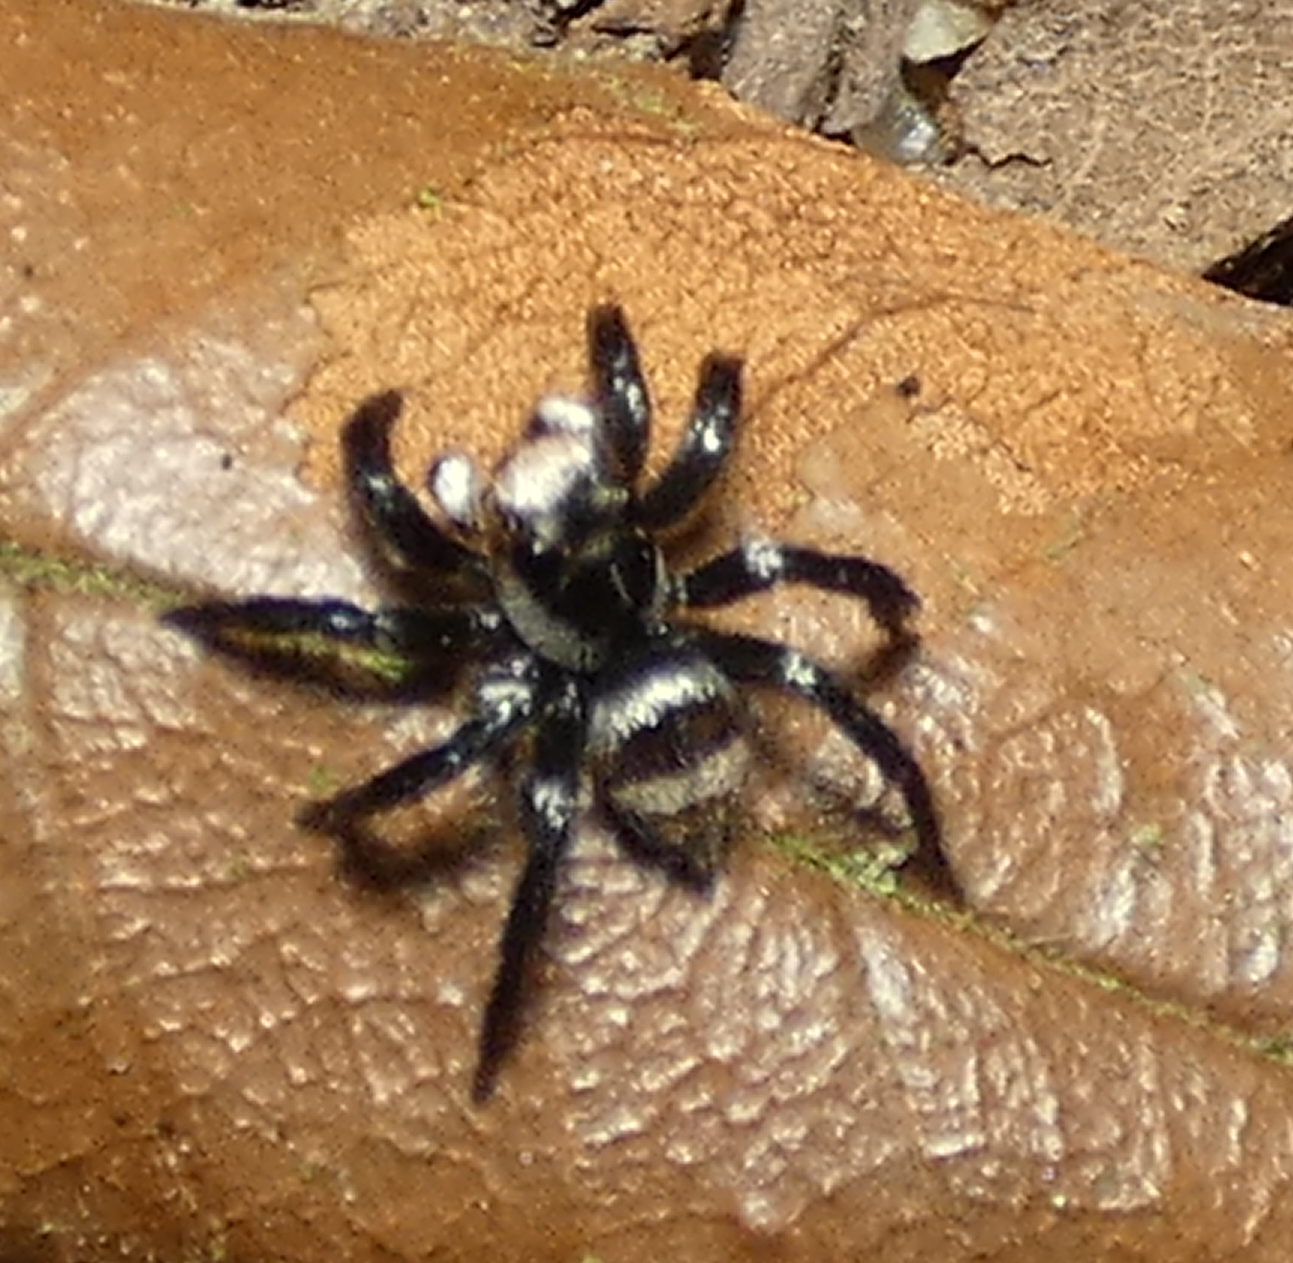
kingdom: Animalia
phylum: Arthropoda
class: Arachnida
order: Araneae
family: Salticidae
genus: Corythalia
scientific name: Corythalia verhaaghi
